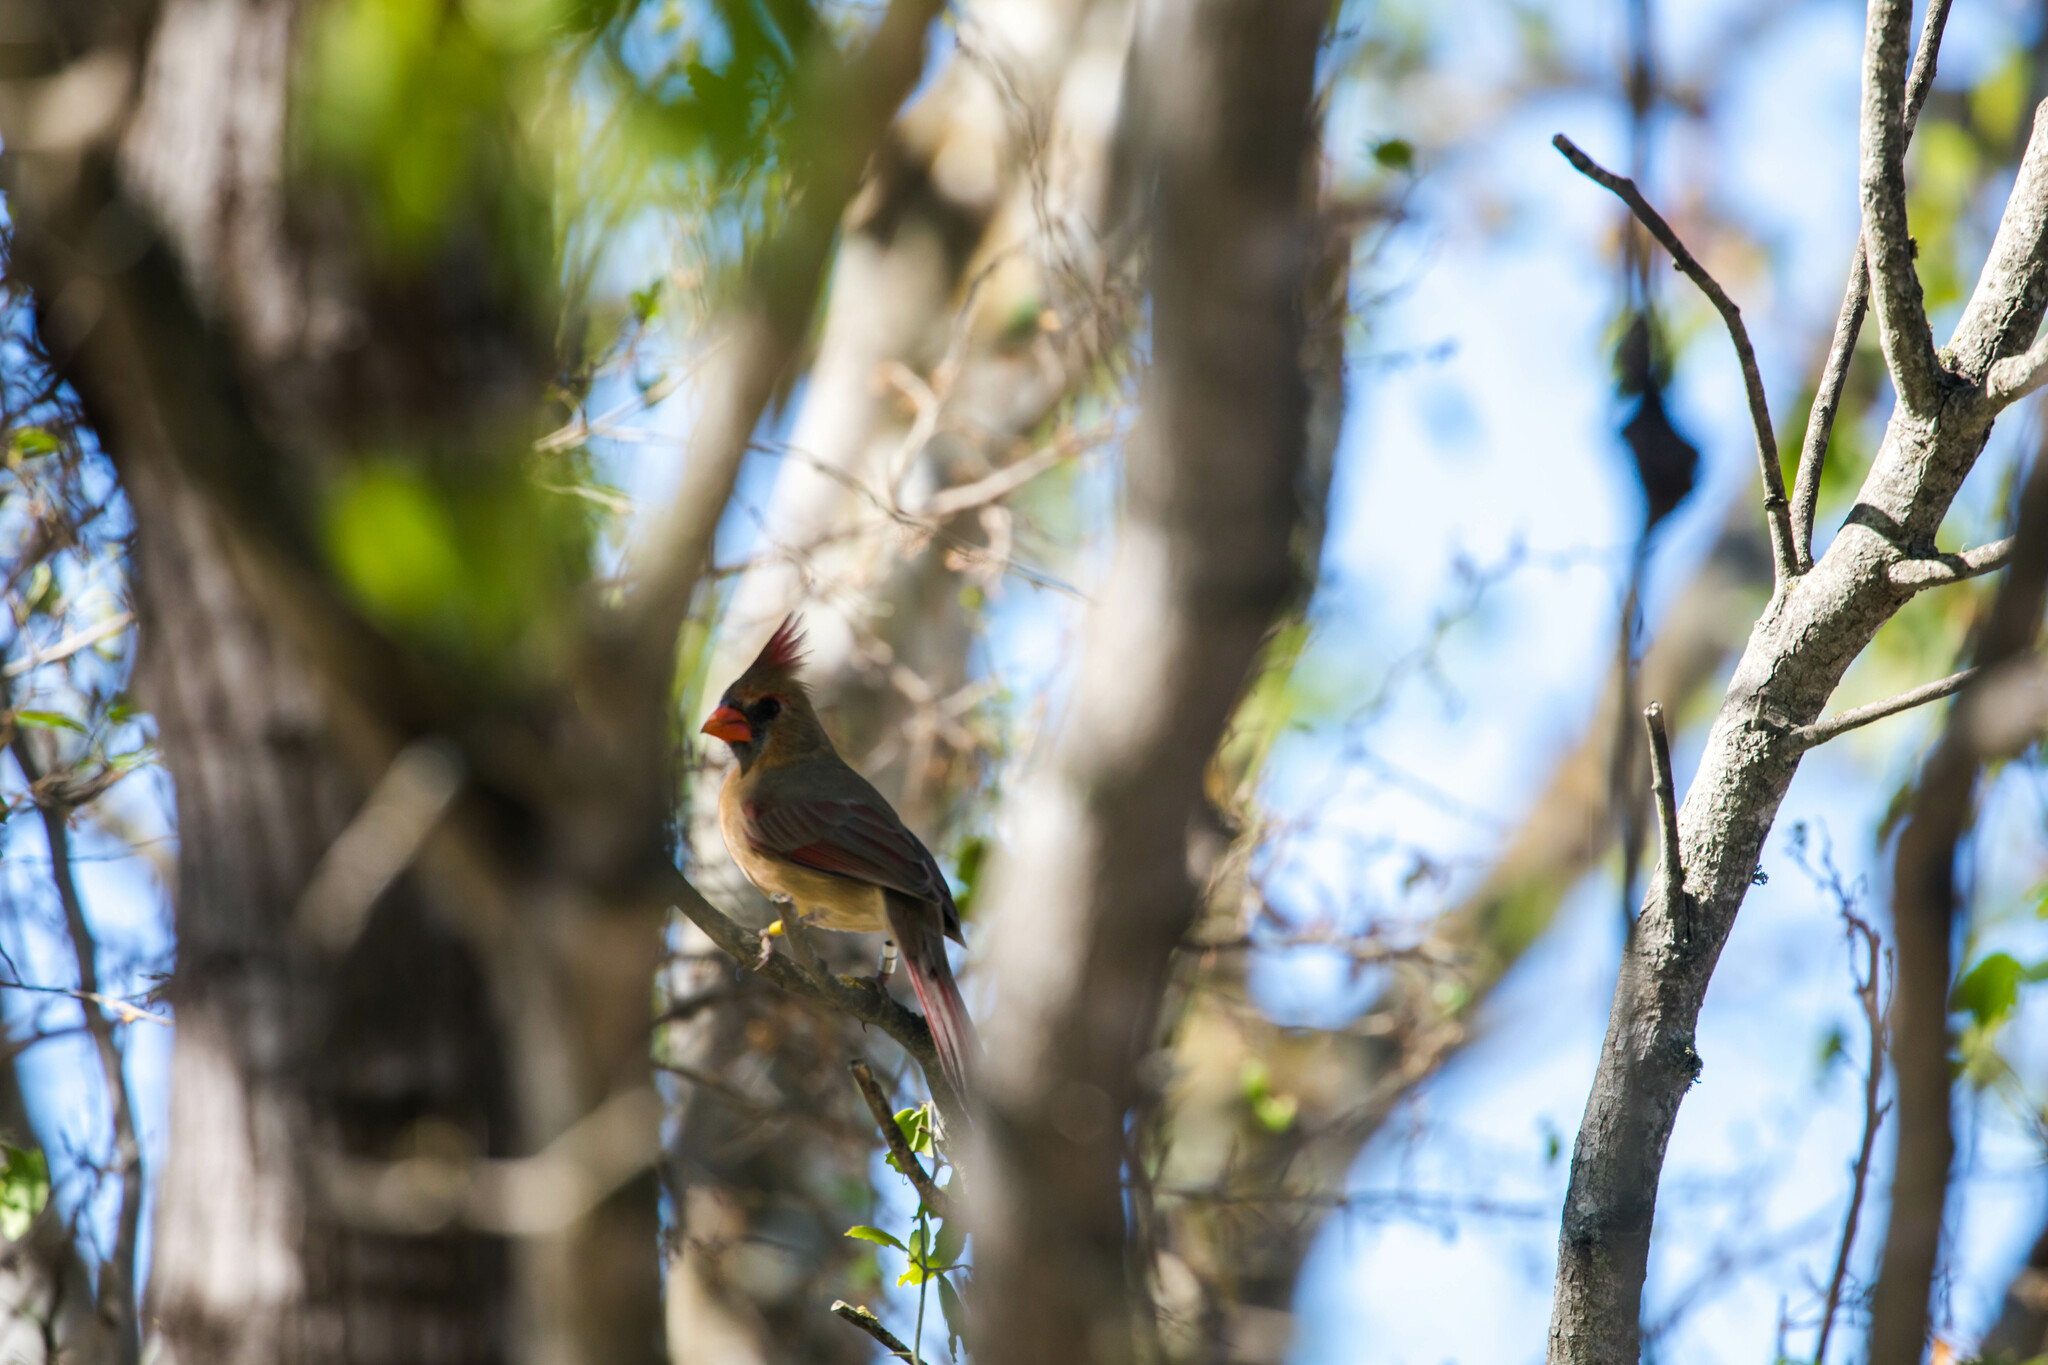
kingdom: Animalia
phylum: Chordata
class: Aves
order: Passeriformes
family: Cardinalidae
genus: Cardinalis
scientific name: Cardinalis cardinalis
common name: Northern cardinal
